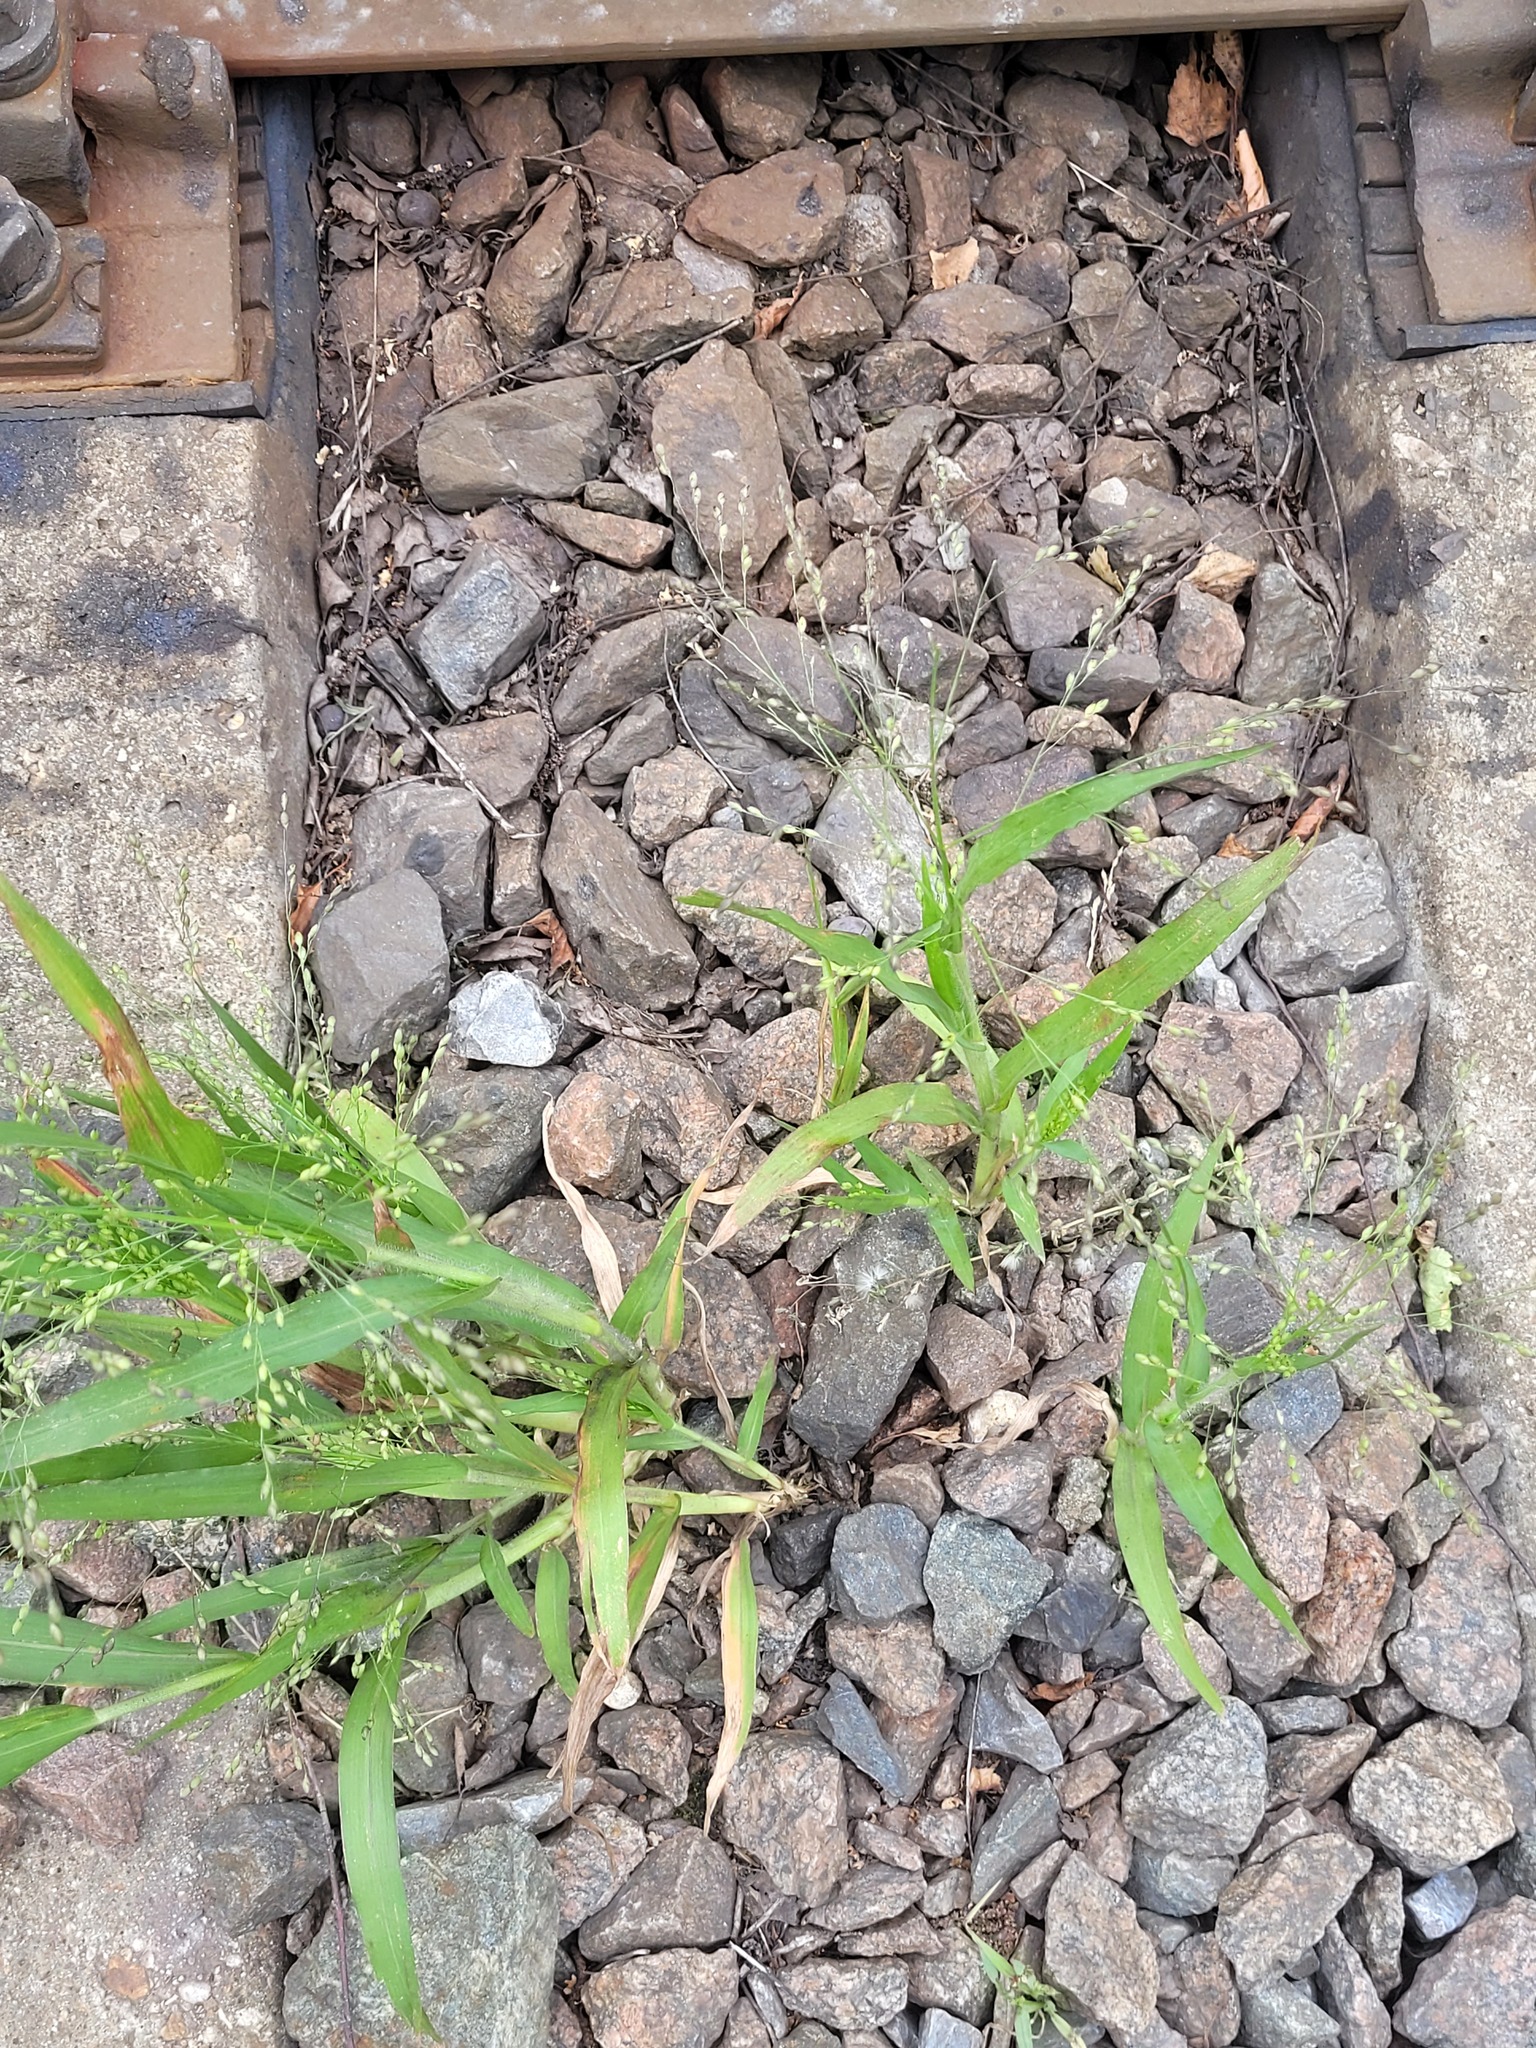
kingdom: Plantae
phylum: Tracheophyta
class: Liliopsida
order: Poales
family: Poaceae
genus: Panicum
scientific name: Panicum miliaceum
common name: Common millet
